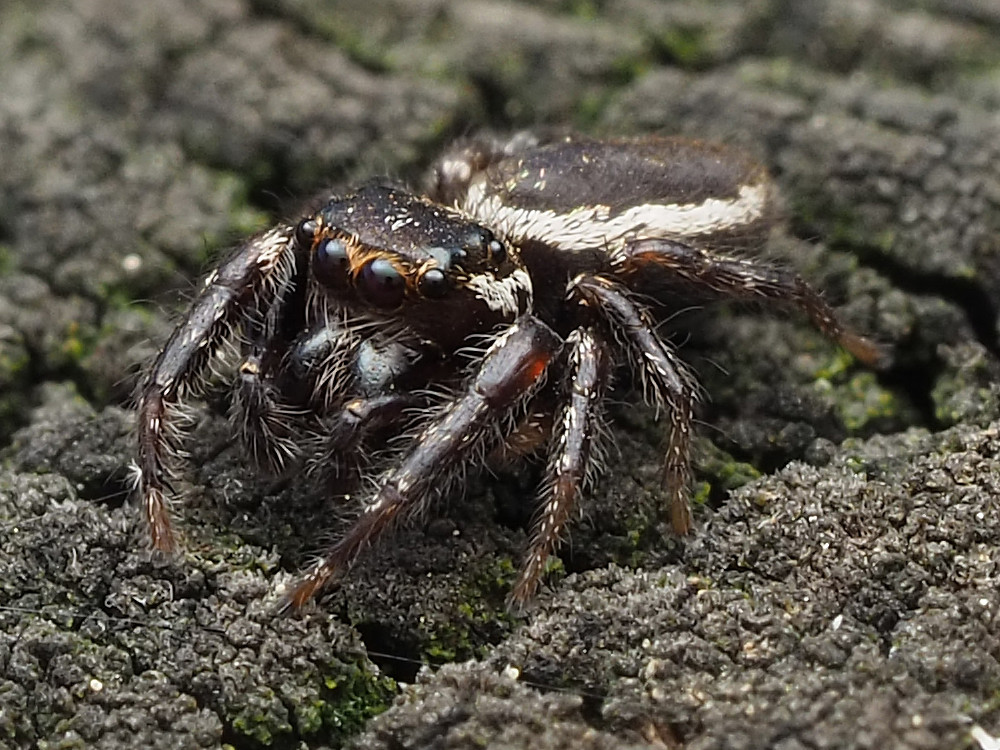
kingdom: Animalia
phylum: Arthropoda
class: Arachnida
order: Araneae
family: Salticidae
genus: Eris
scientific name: Eris militaris
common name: Bronze jumper
